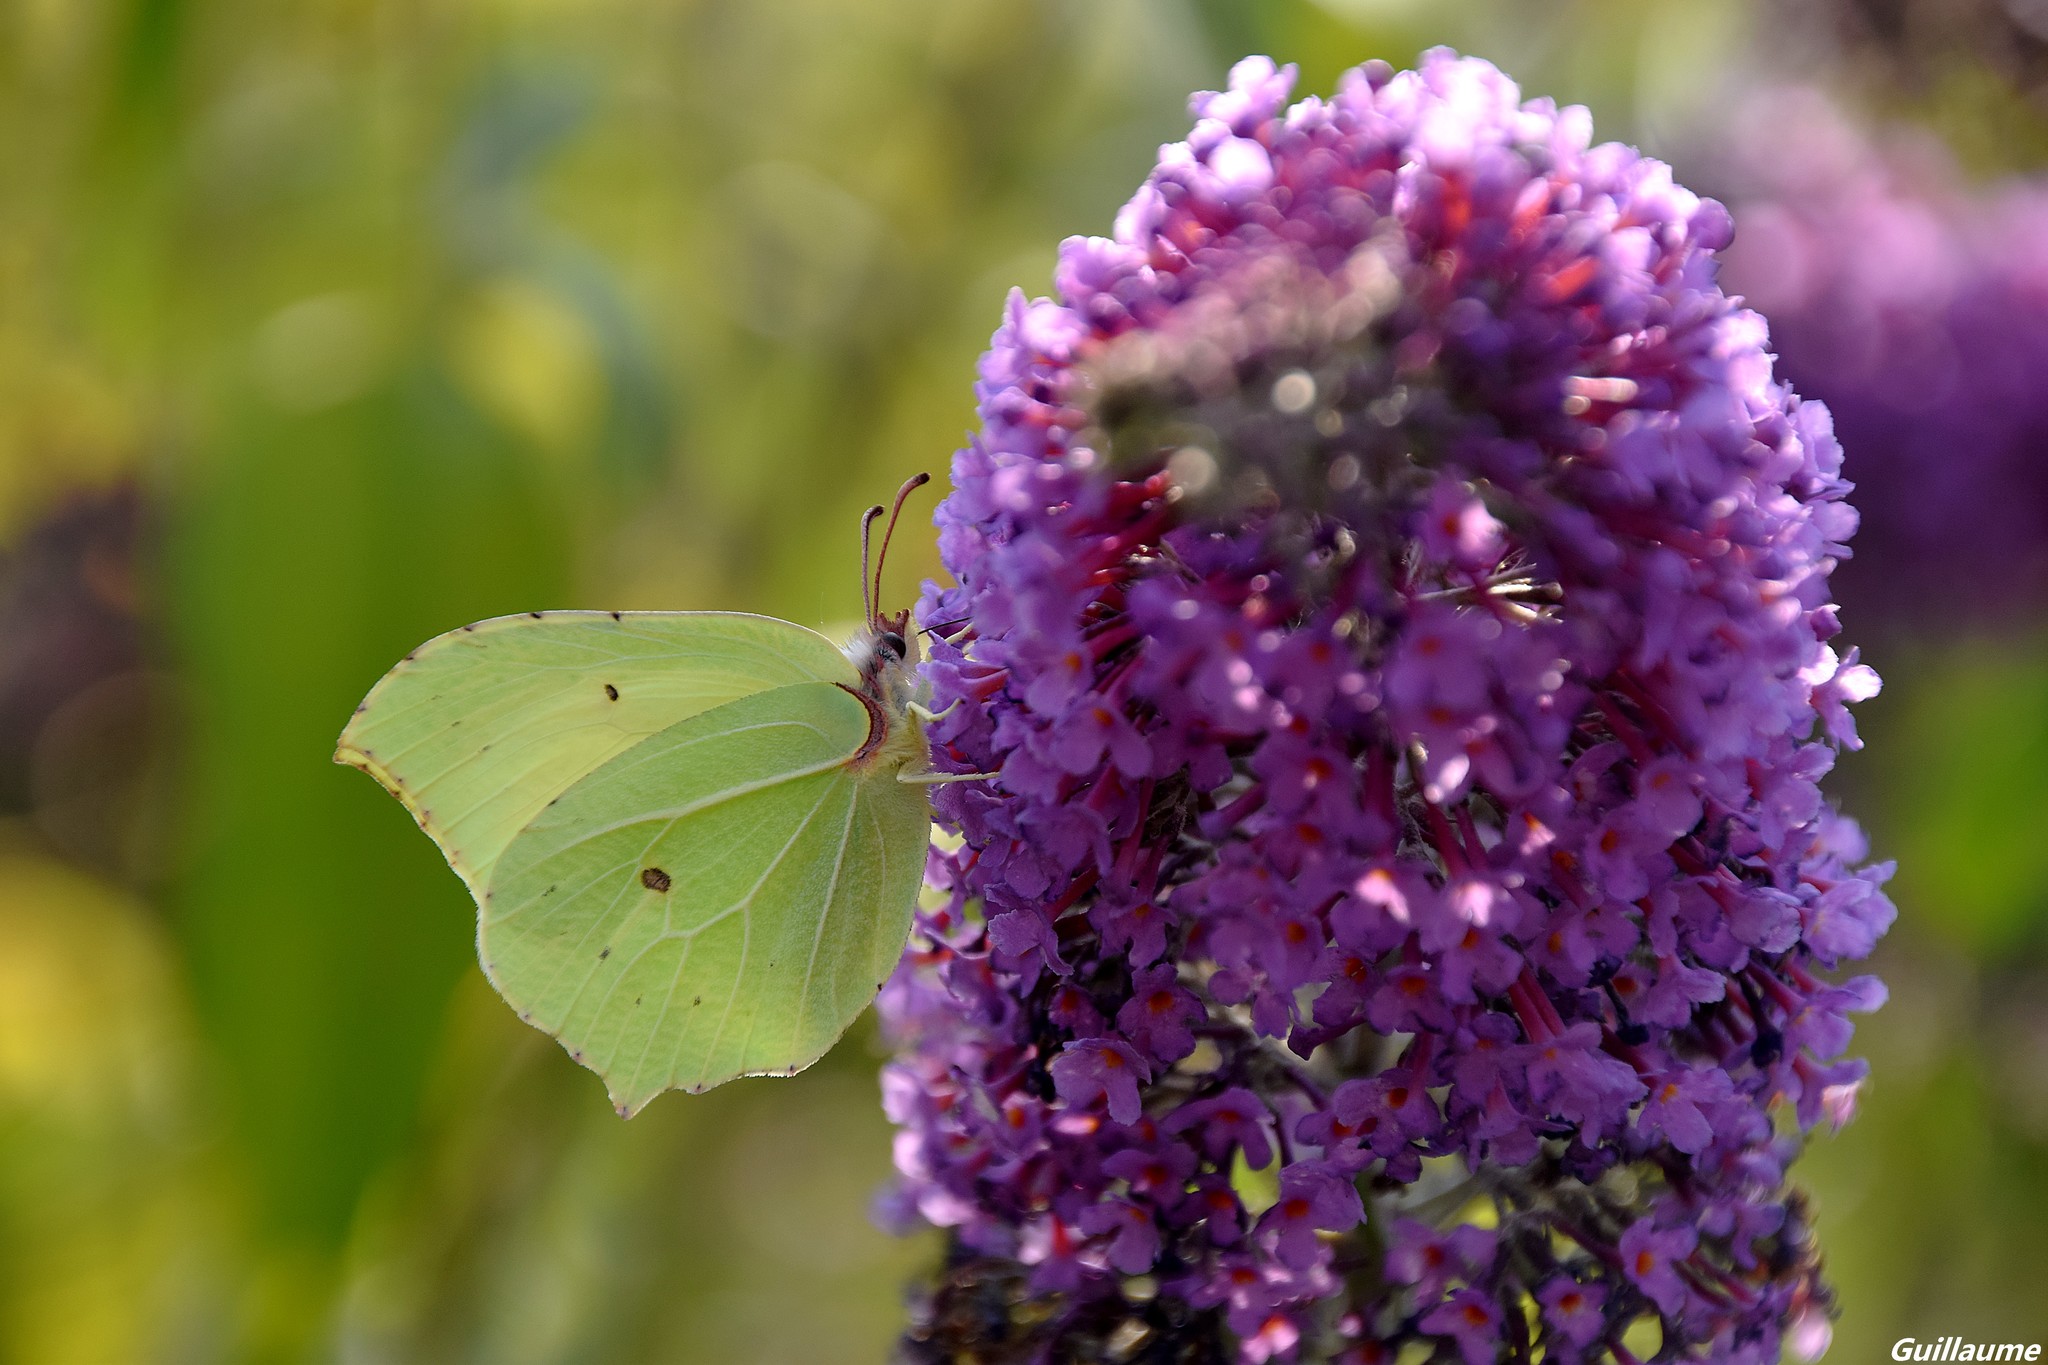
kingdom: Animalia
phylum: Arthropoda
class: Insecta
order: Lepidoptera
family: Pieridae
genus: Gonepteryx
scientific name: Gonepteryx rhamni
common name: Brimstone
